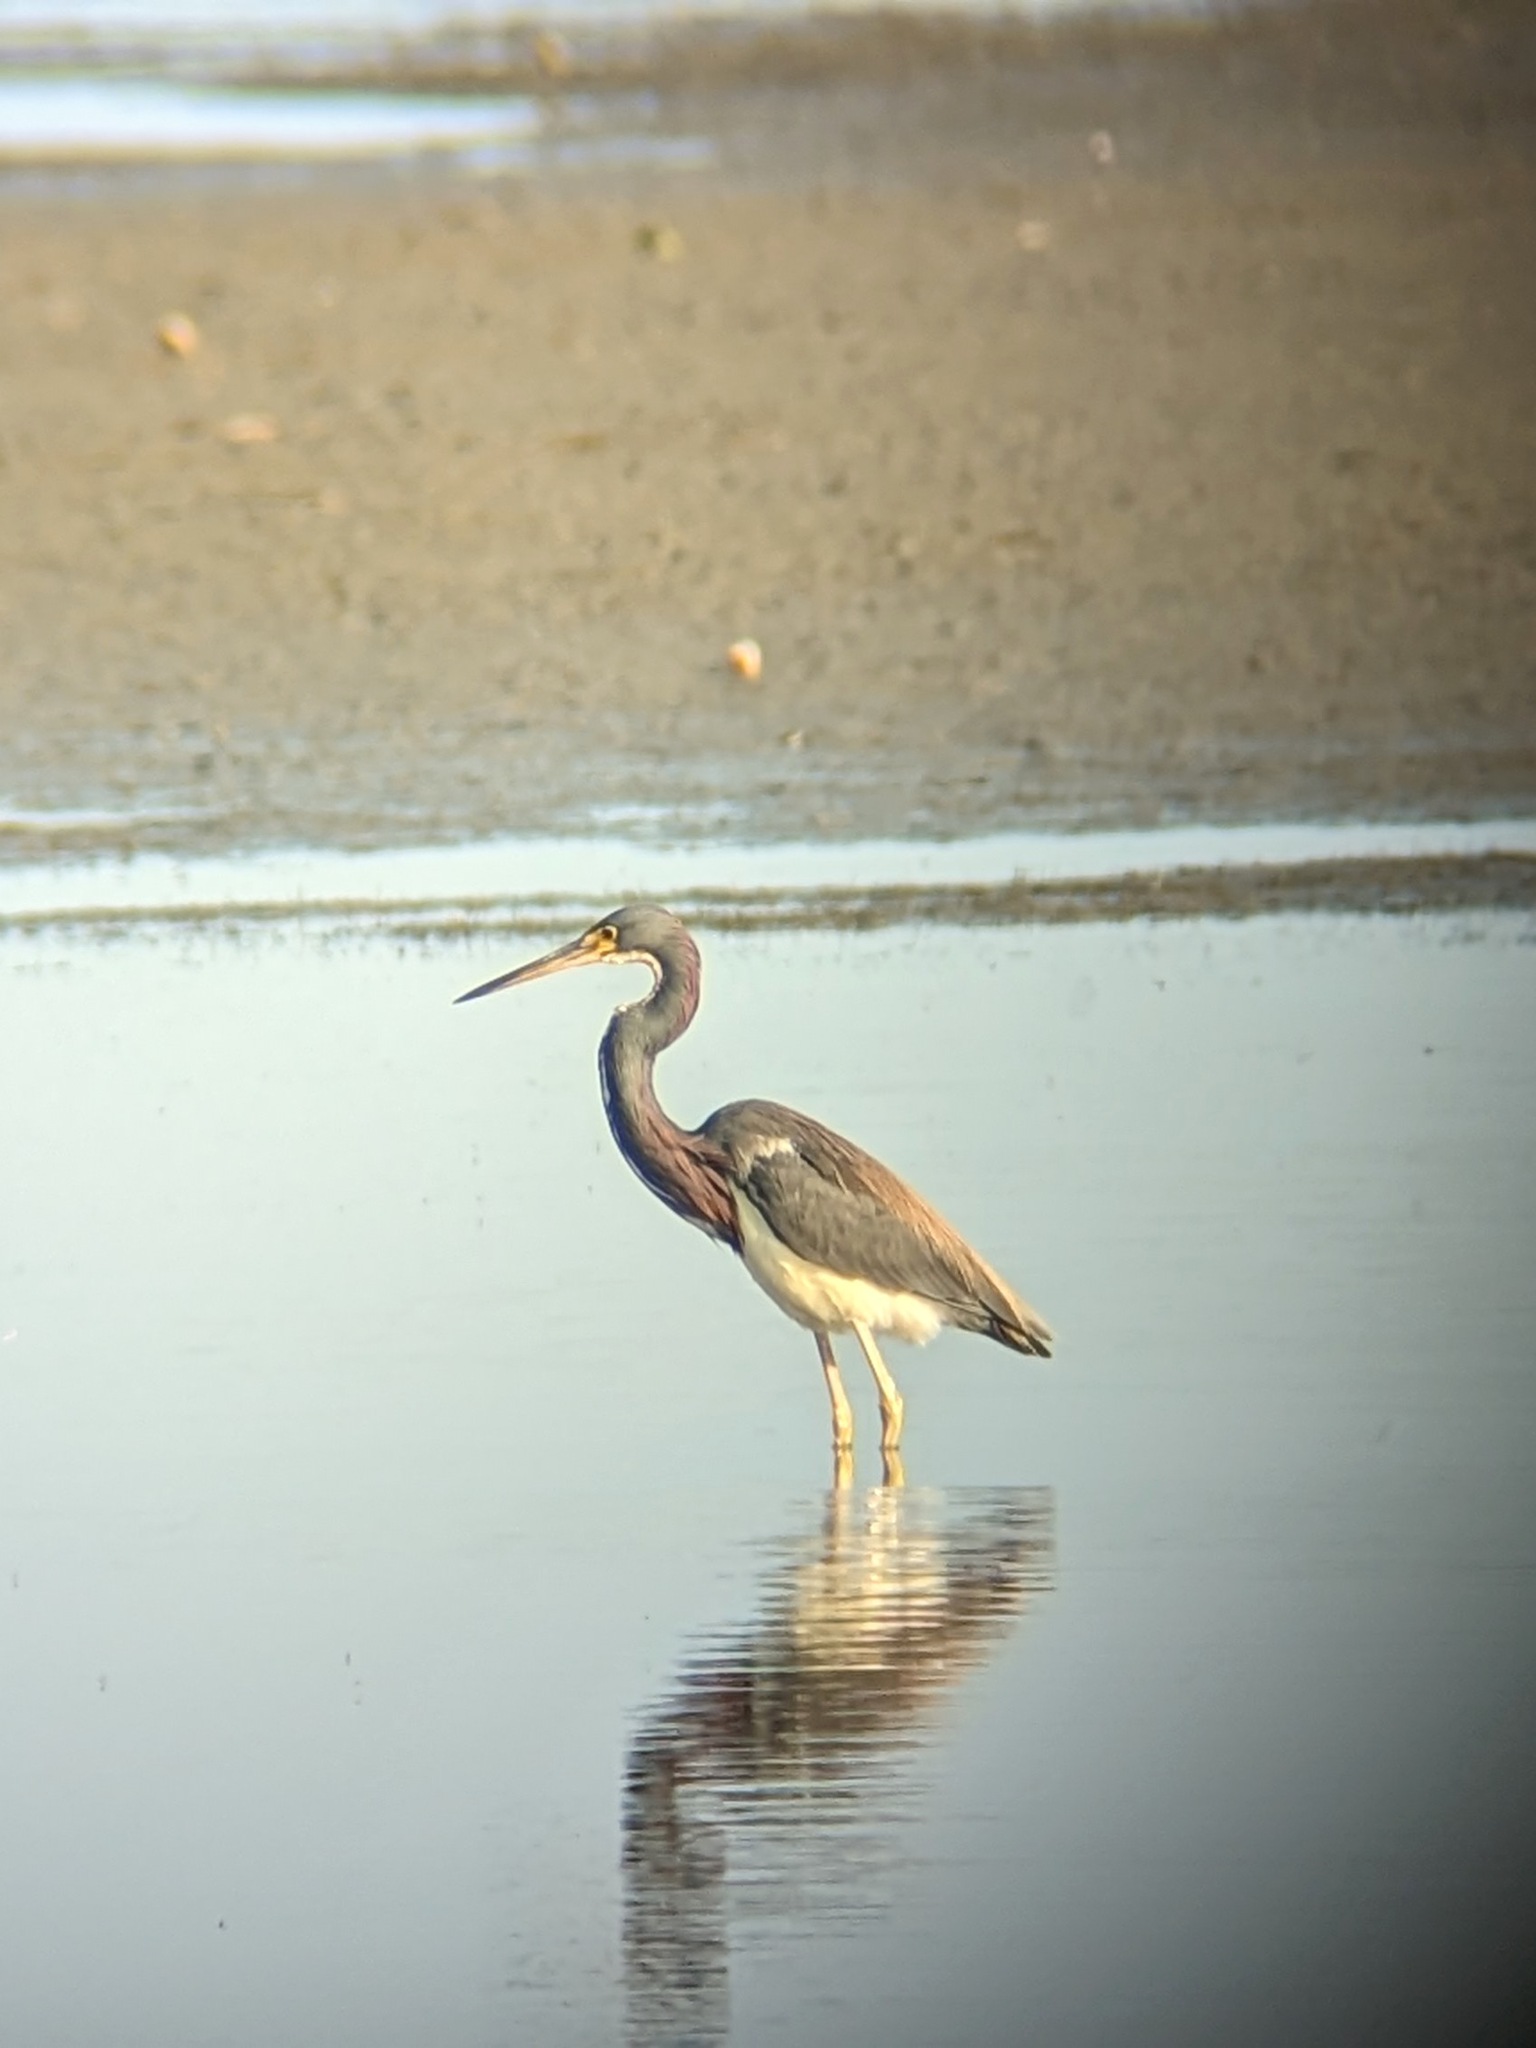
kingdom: Animalia
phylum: Chordata
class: Aves
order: Pelecaniformes
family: Ardeidae
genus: Egretta
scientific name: Egretta tricolor
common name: Tricolored heron
